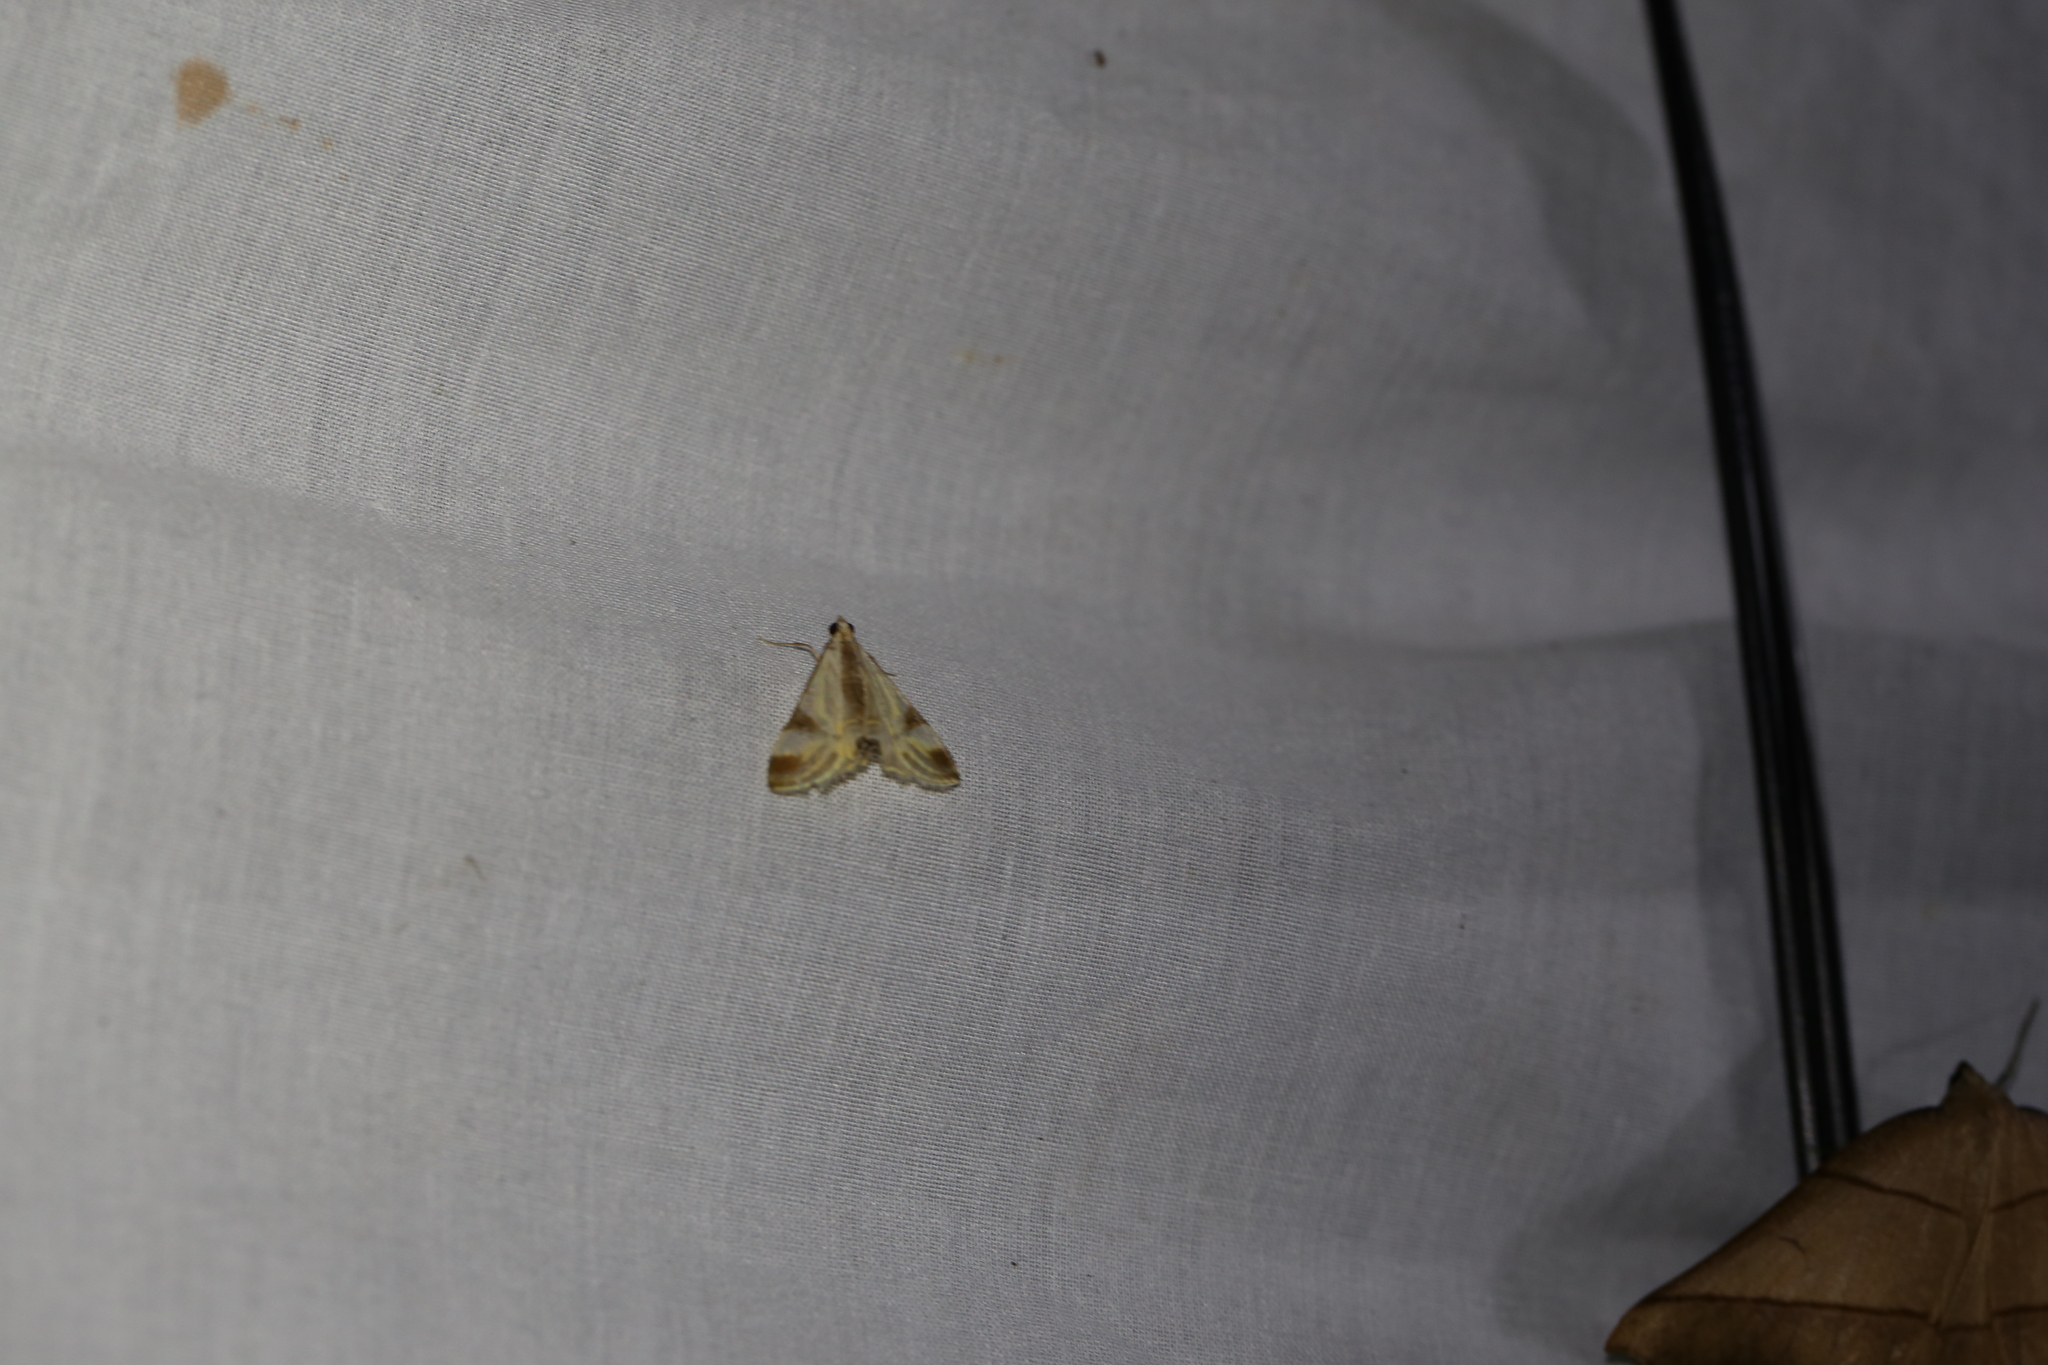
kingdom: Animalia
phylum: Arthropoda
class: Insecta
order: Lepidoptera
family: Crambidae
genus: Talanga
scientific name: Talanga tolumnialis
